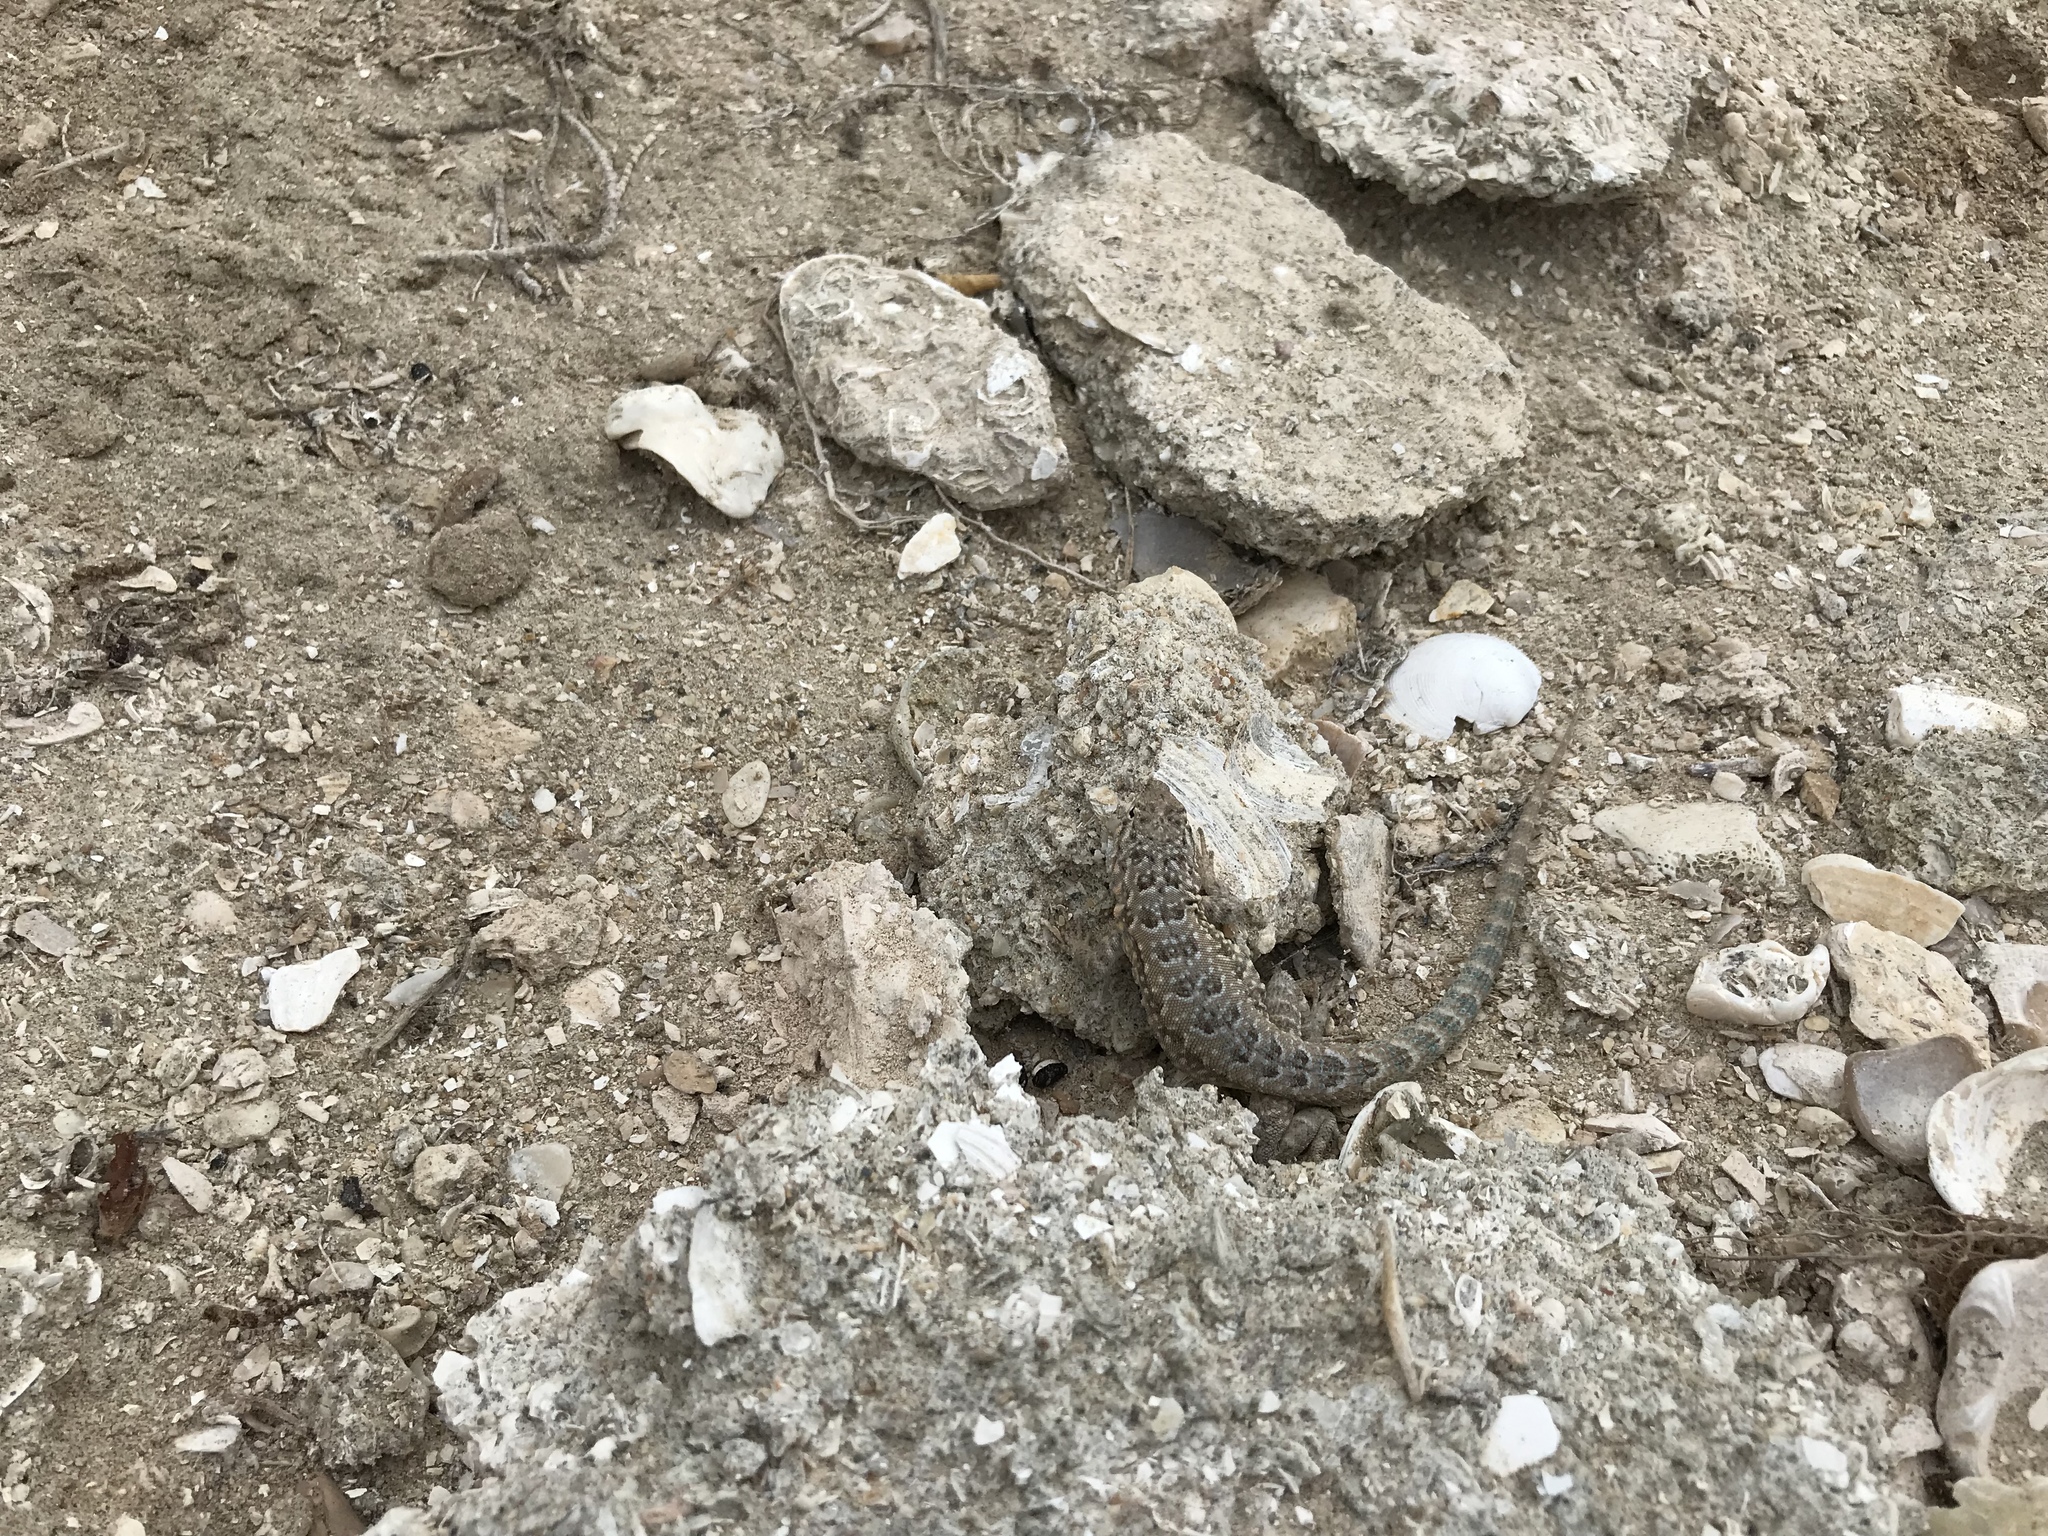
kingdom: Animalia
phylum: Chordata
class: Squamata
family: Phrynosomatidae
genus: Uta
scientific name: Uta stansburiana
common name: Side-blotched lizard
